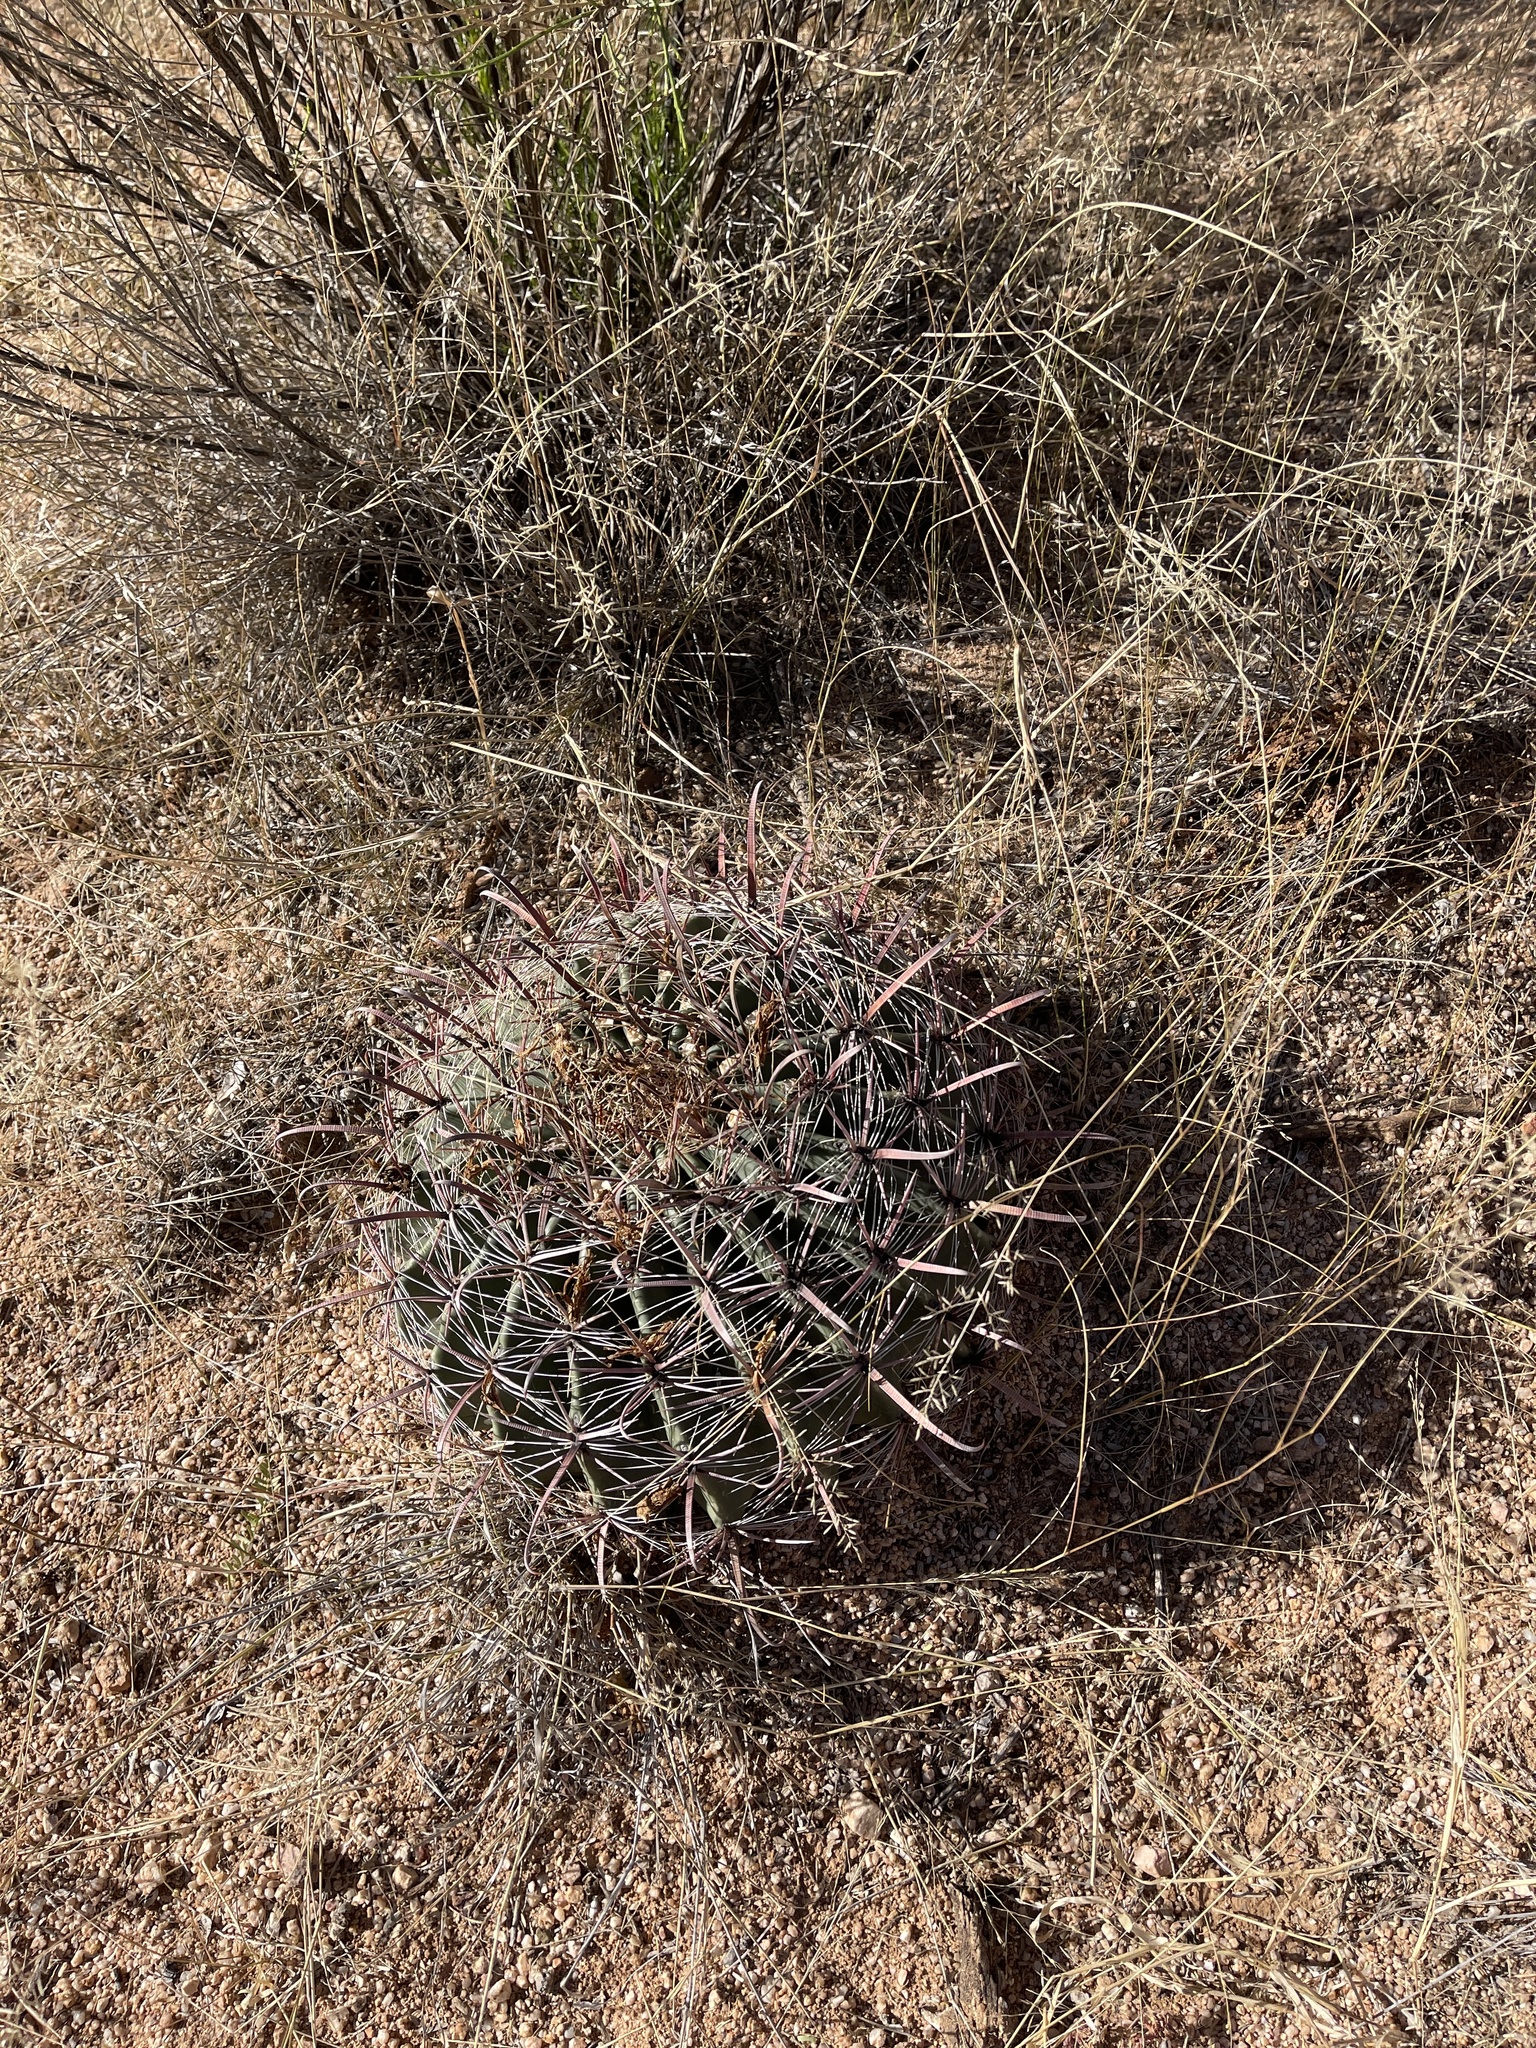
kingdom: Plantae
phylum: Tracheophyta
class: Magnoliopsida
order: Caryophyllales
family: Cactaceae
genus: Ferocactus
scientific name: Ferocactus wislizeni
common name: Candy barrel cactus
